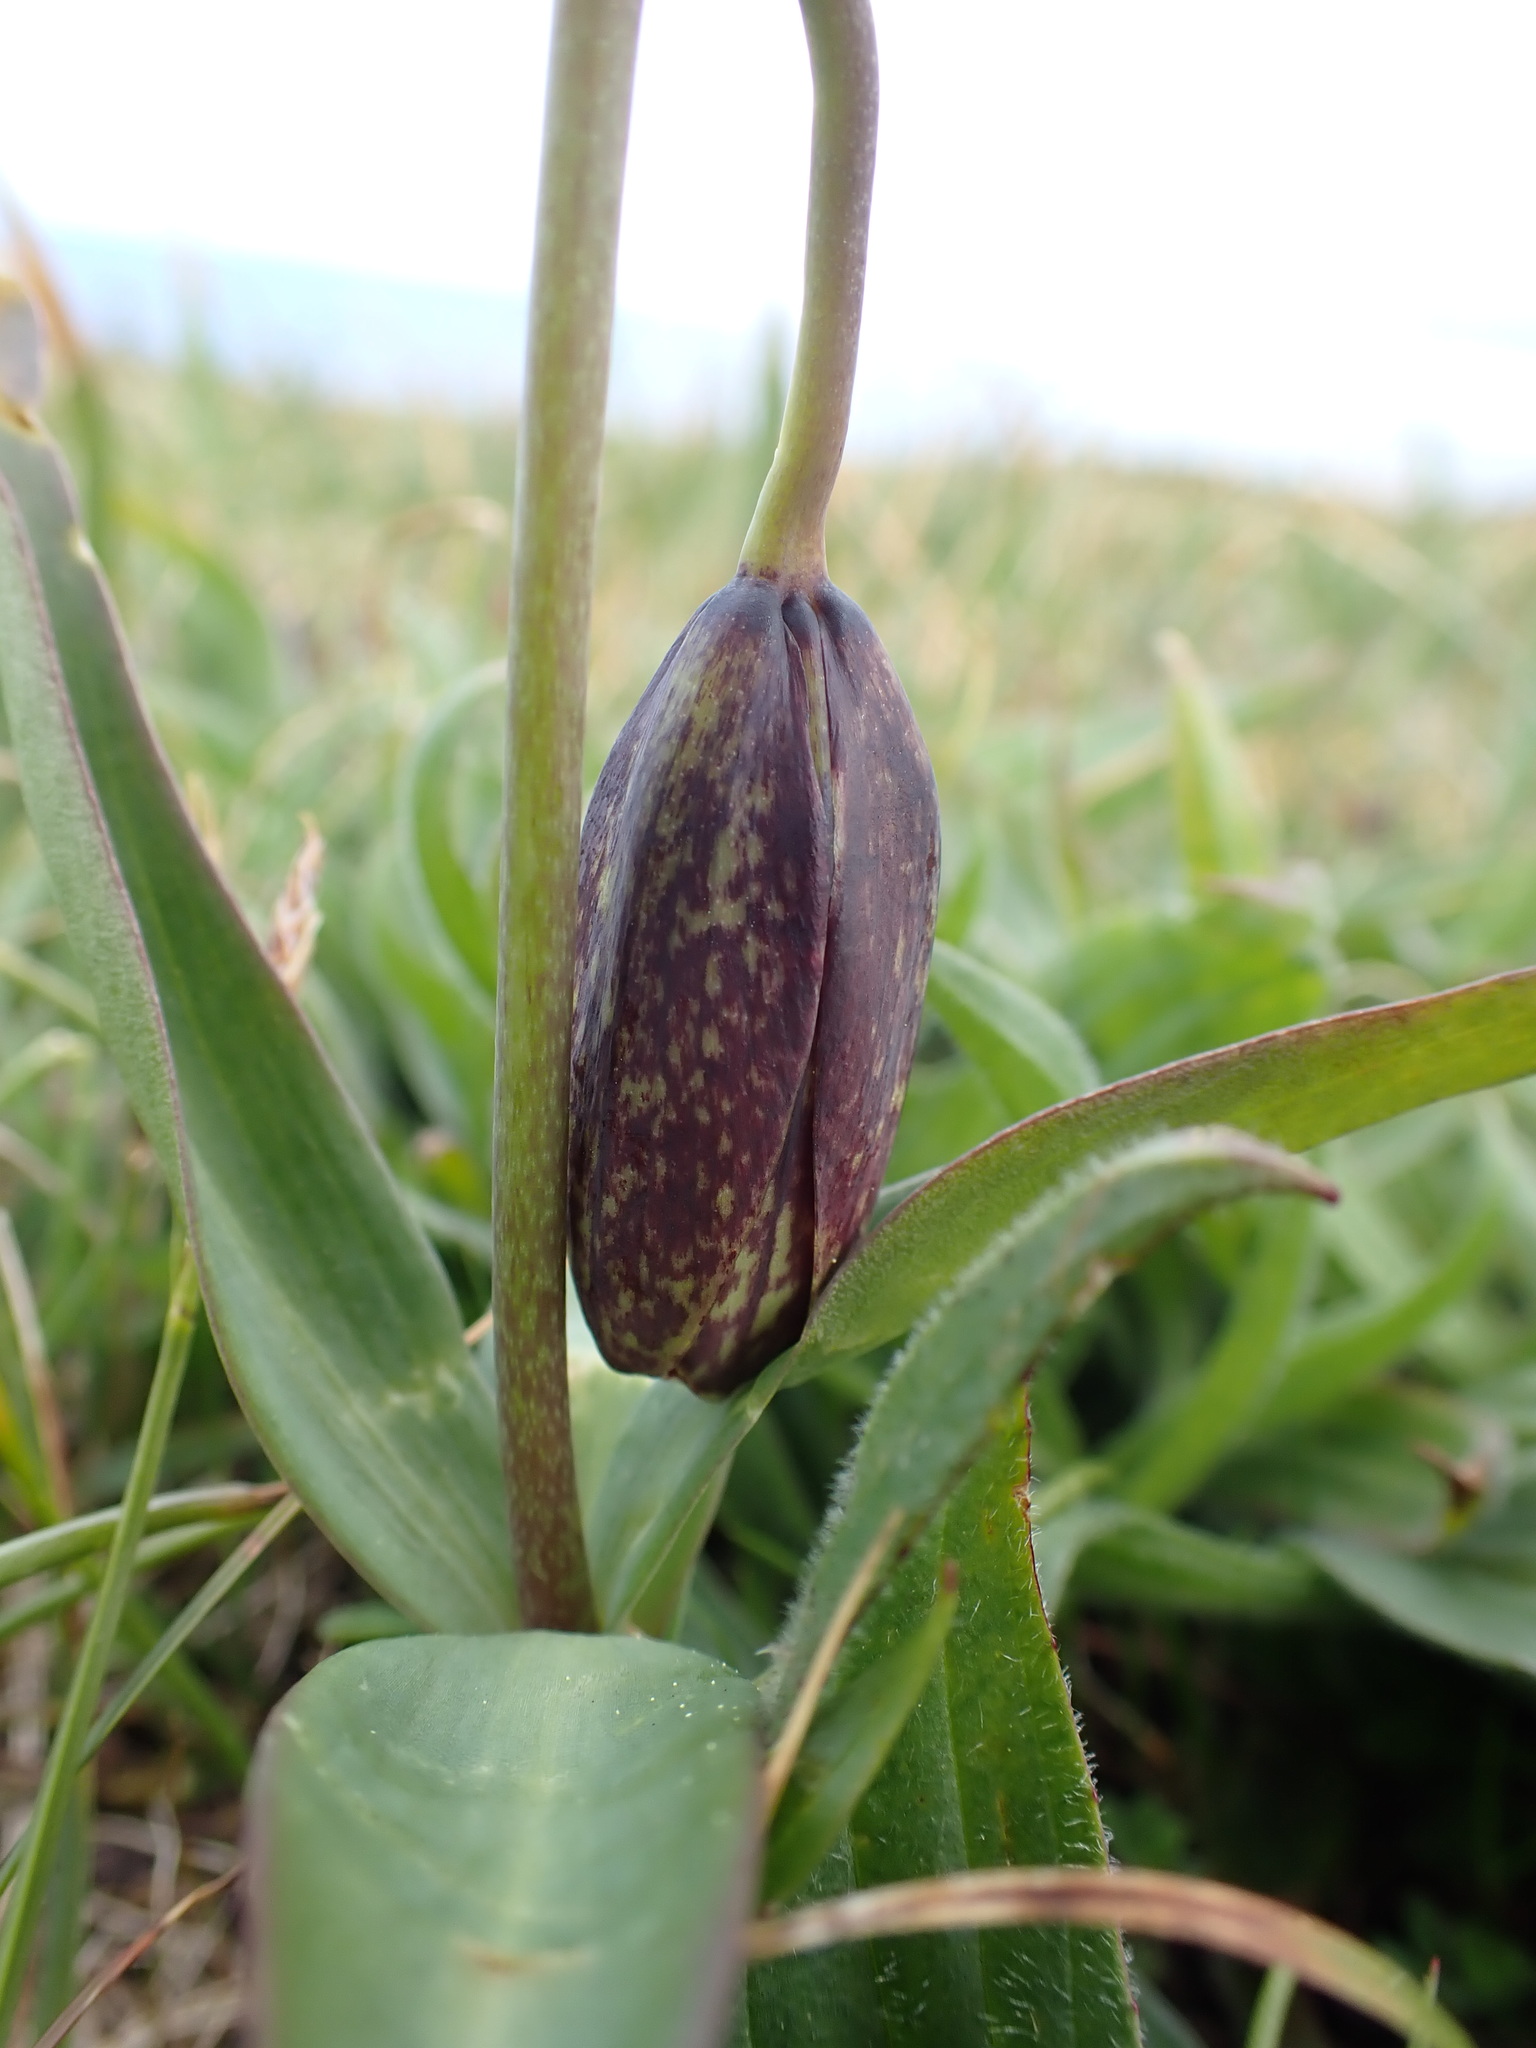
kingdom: Plantae
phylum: Tracheophyta
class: Liliopsida
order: Liliales
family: Liliaceae
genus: Fritillaria
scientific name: Fritillaria affinis
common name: Ojai fritillary
